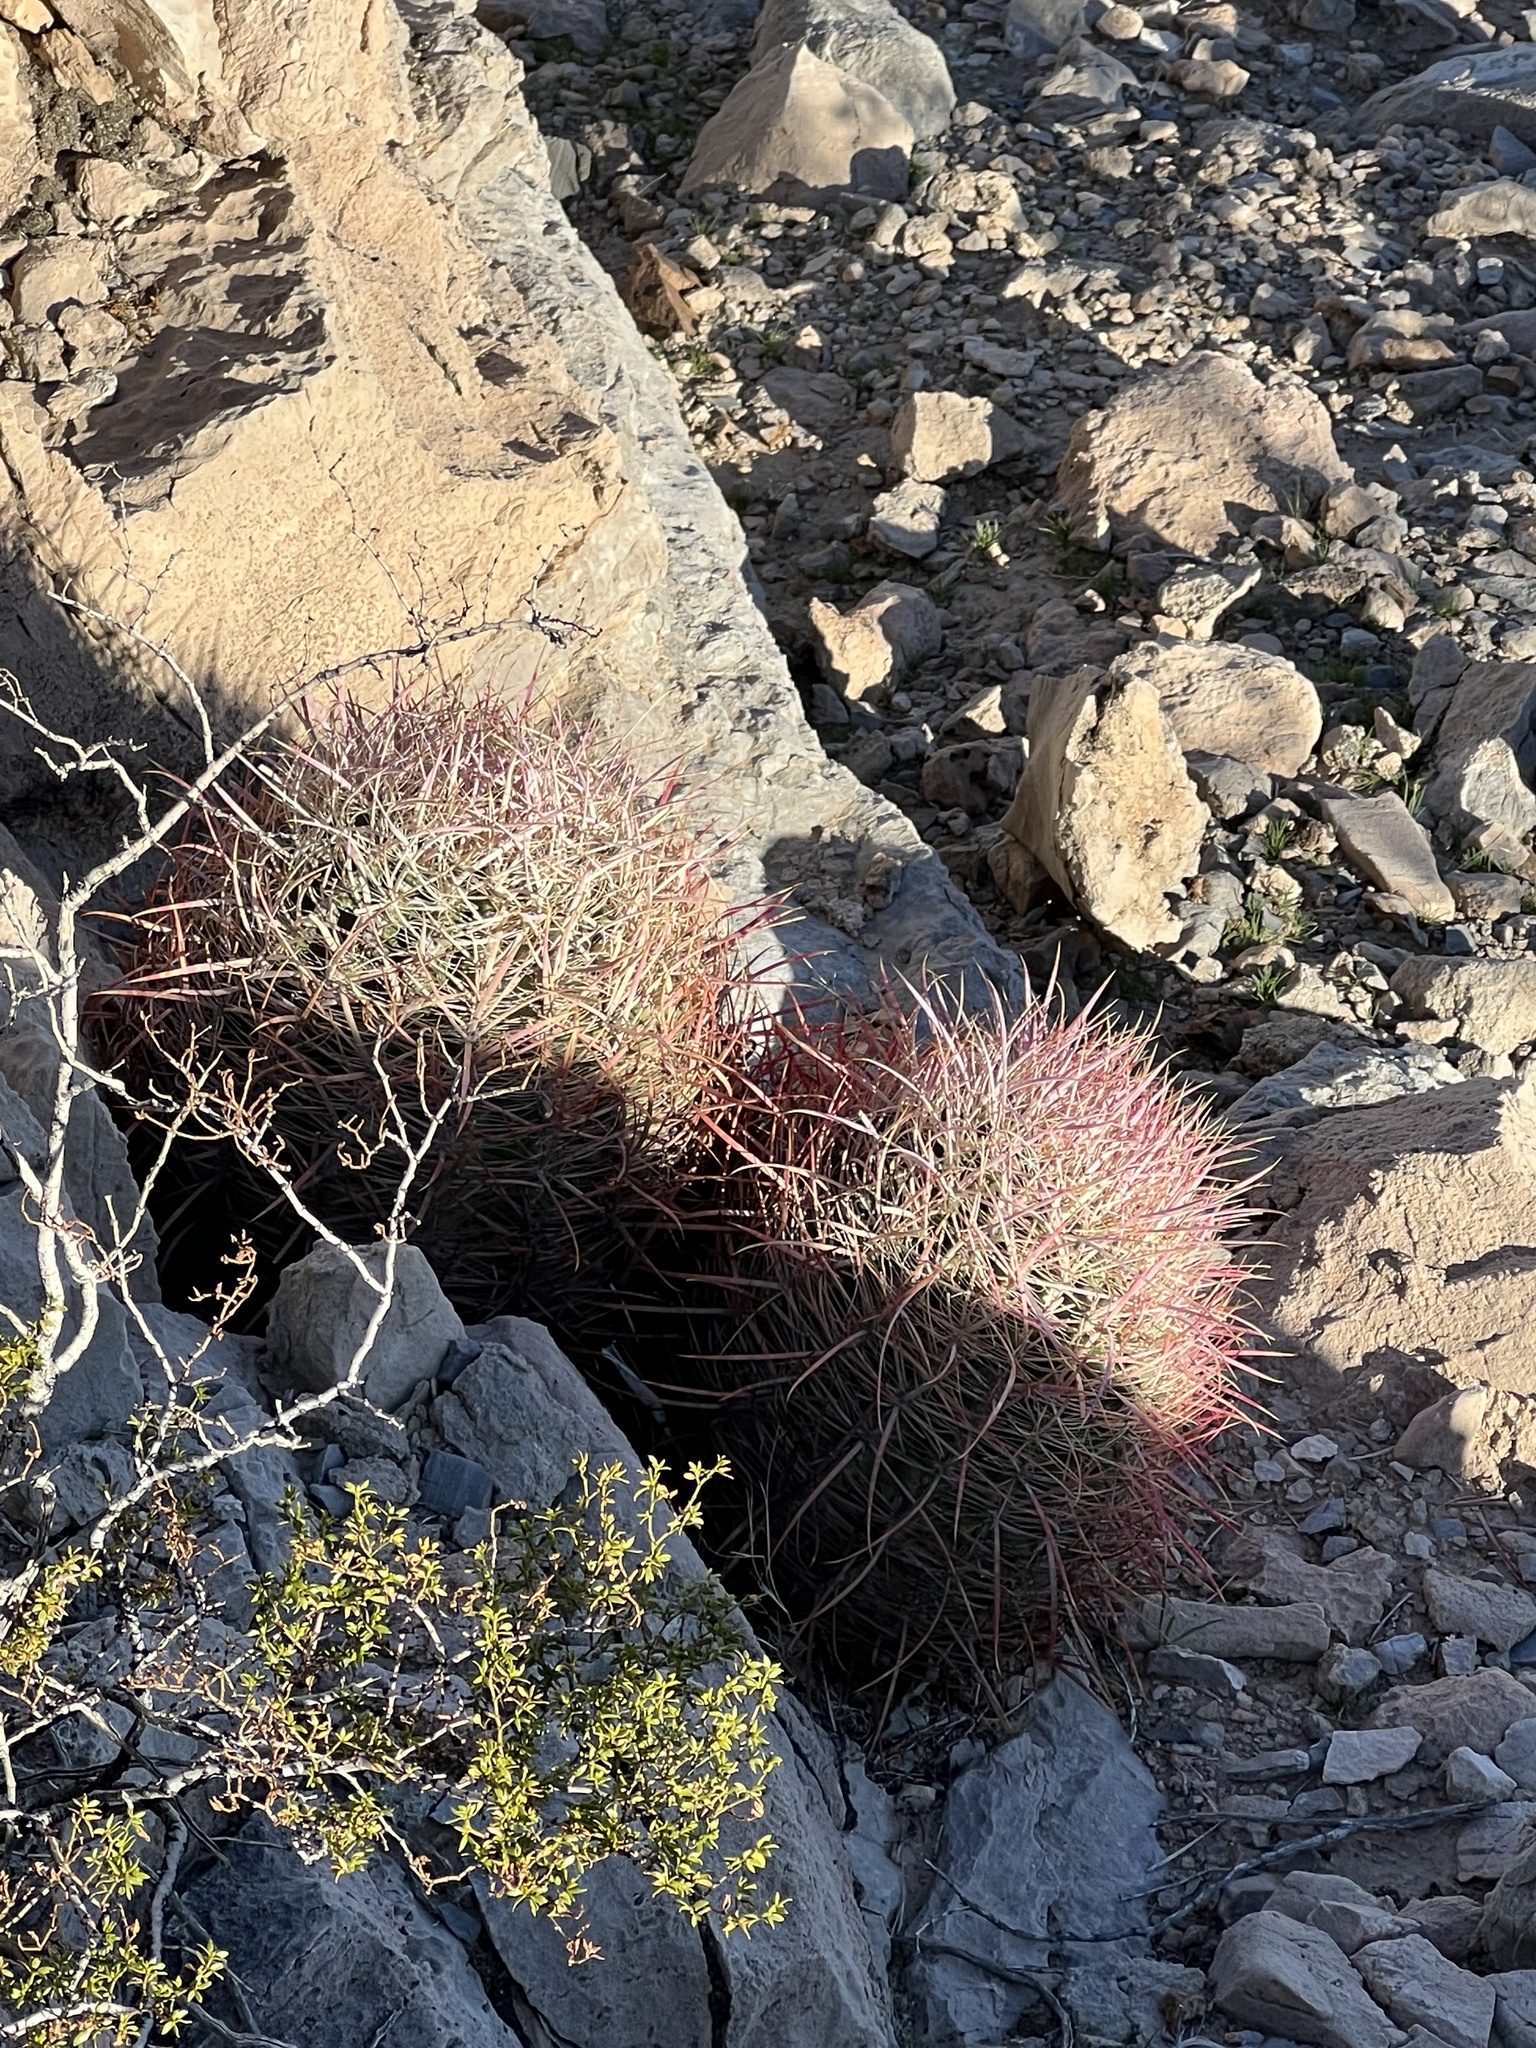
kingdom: Plantae
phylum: Tracheophyta
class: Magnoliopsida
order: Caryophyllales
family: Cactaceae
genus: Ferocactus
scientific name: Ferocactus cylindraceus
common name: California barrel cactus
